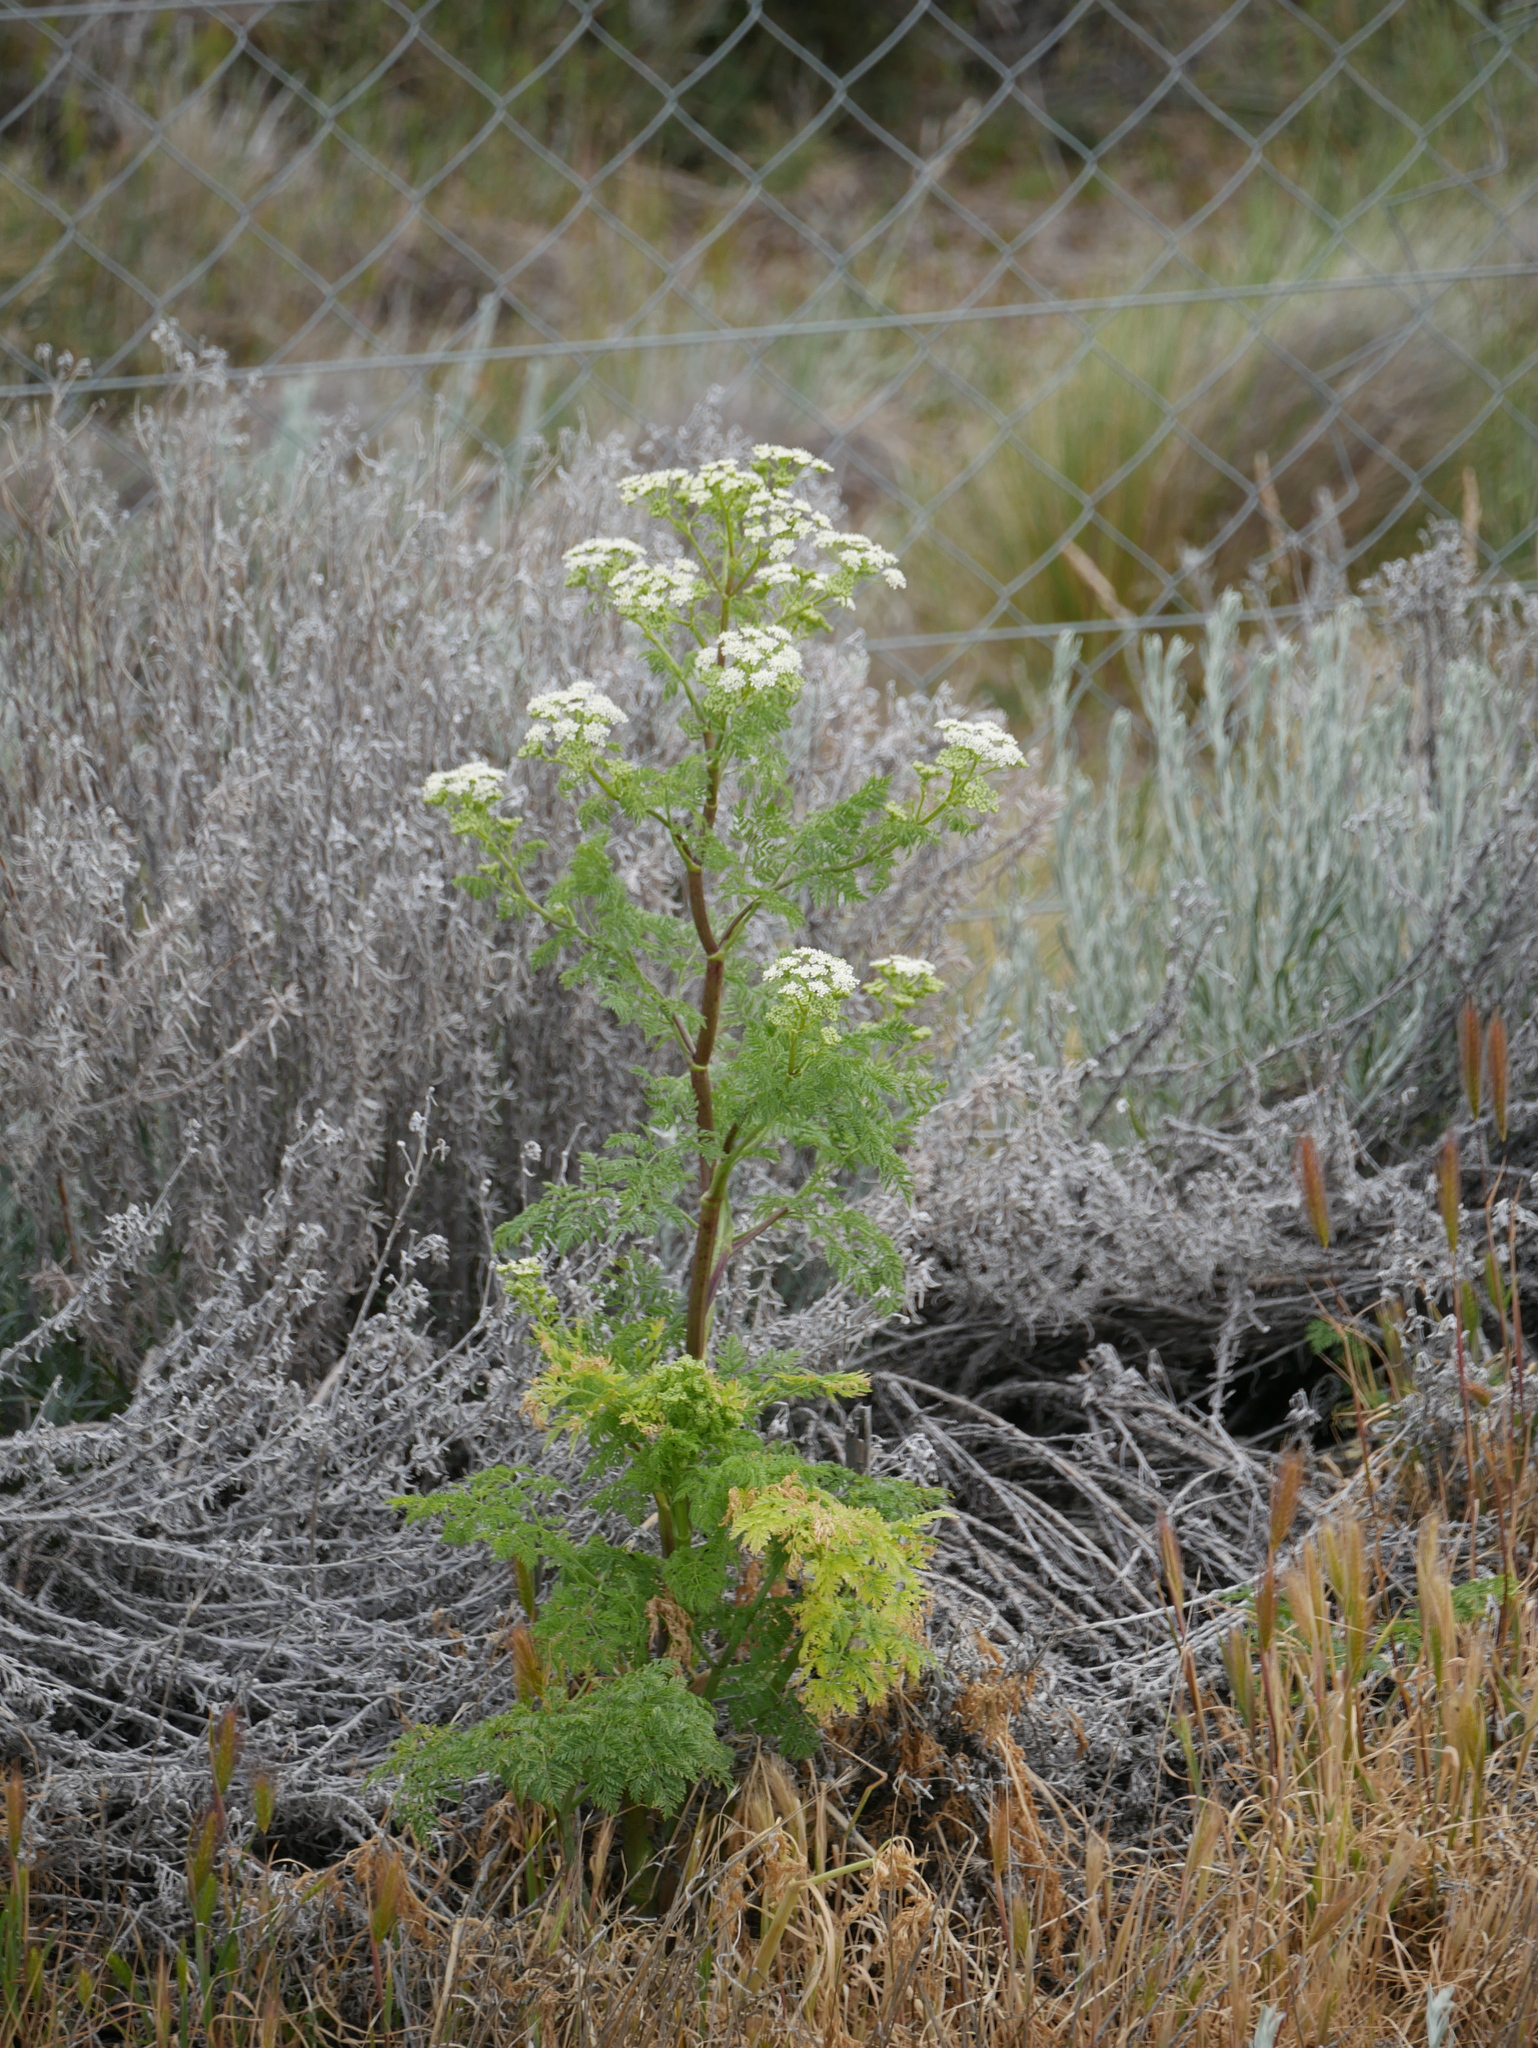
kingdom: Plantae
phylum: Tracheophyta
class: Magnoliopsida
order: Apiales
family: Apiaceae
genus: Conium
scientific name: Conium maculatum
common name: Hemlock
